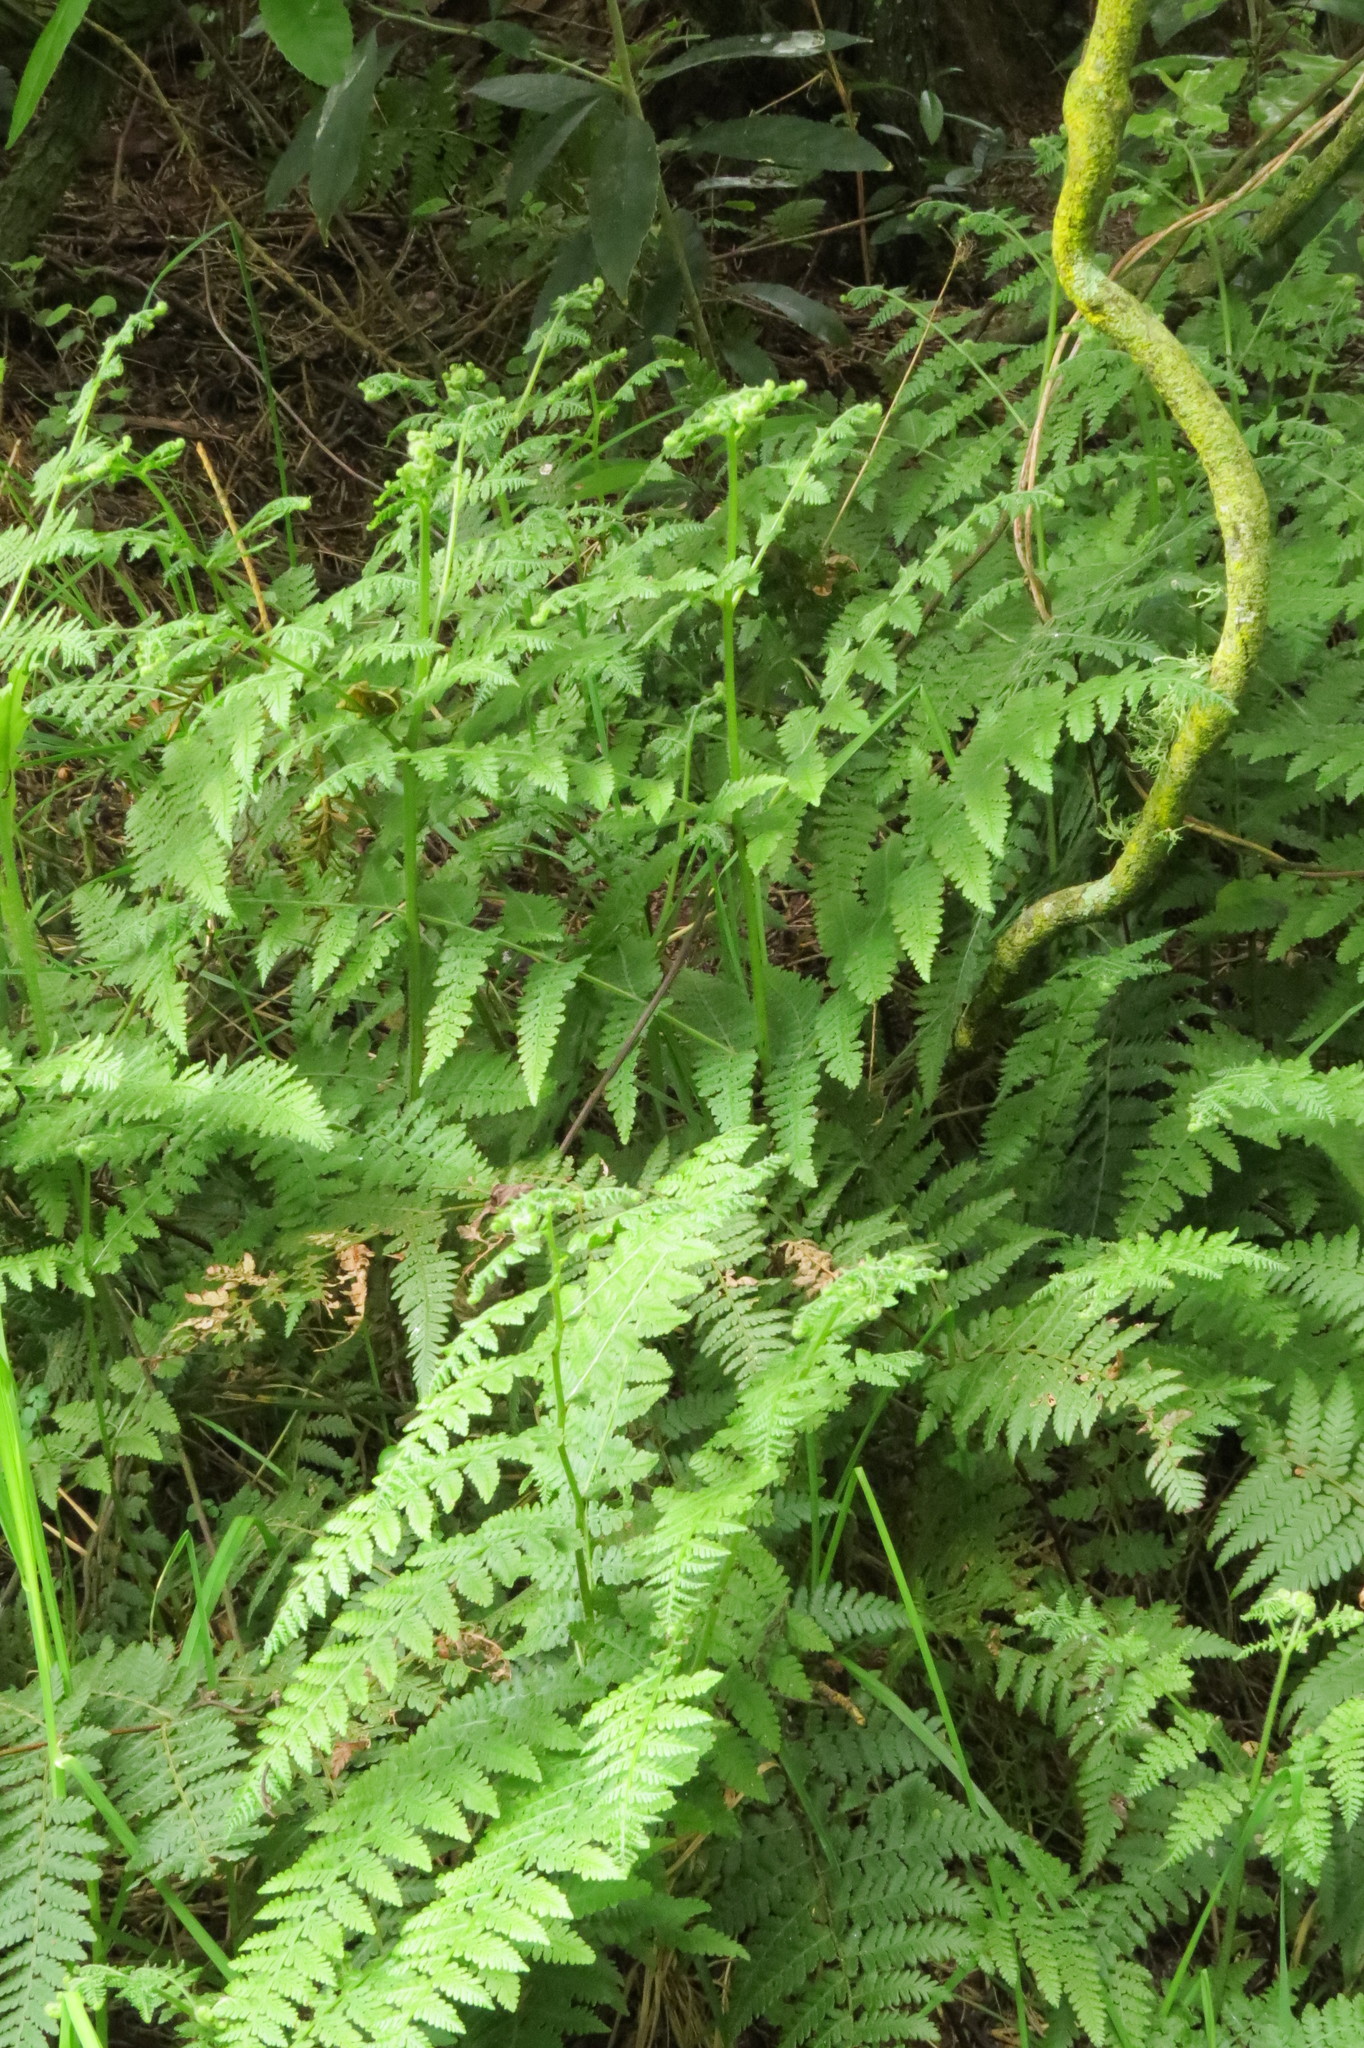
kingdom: Plantae
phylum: Tracheophyta
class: Polypodiopsida
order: Polypodiales
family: Dennstaedtiaceae
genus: Hypolepis
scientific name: Hypolepis ambigua
